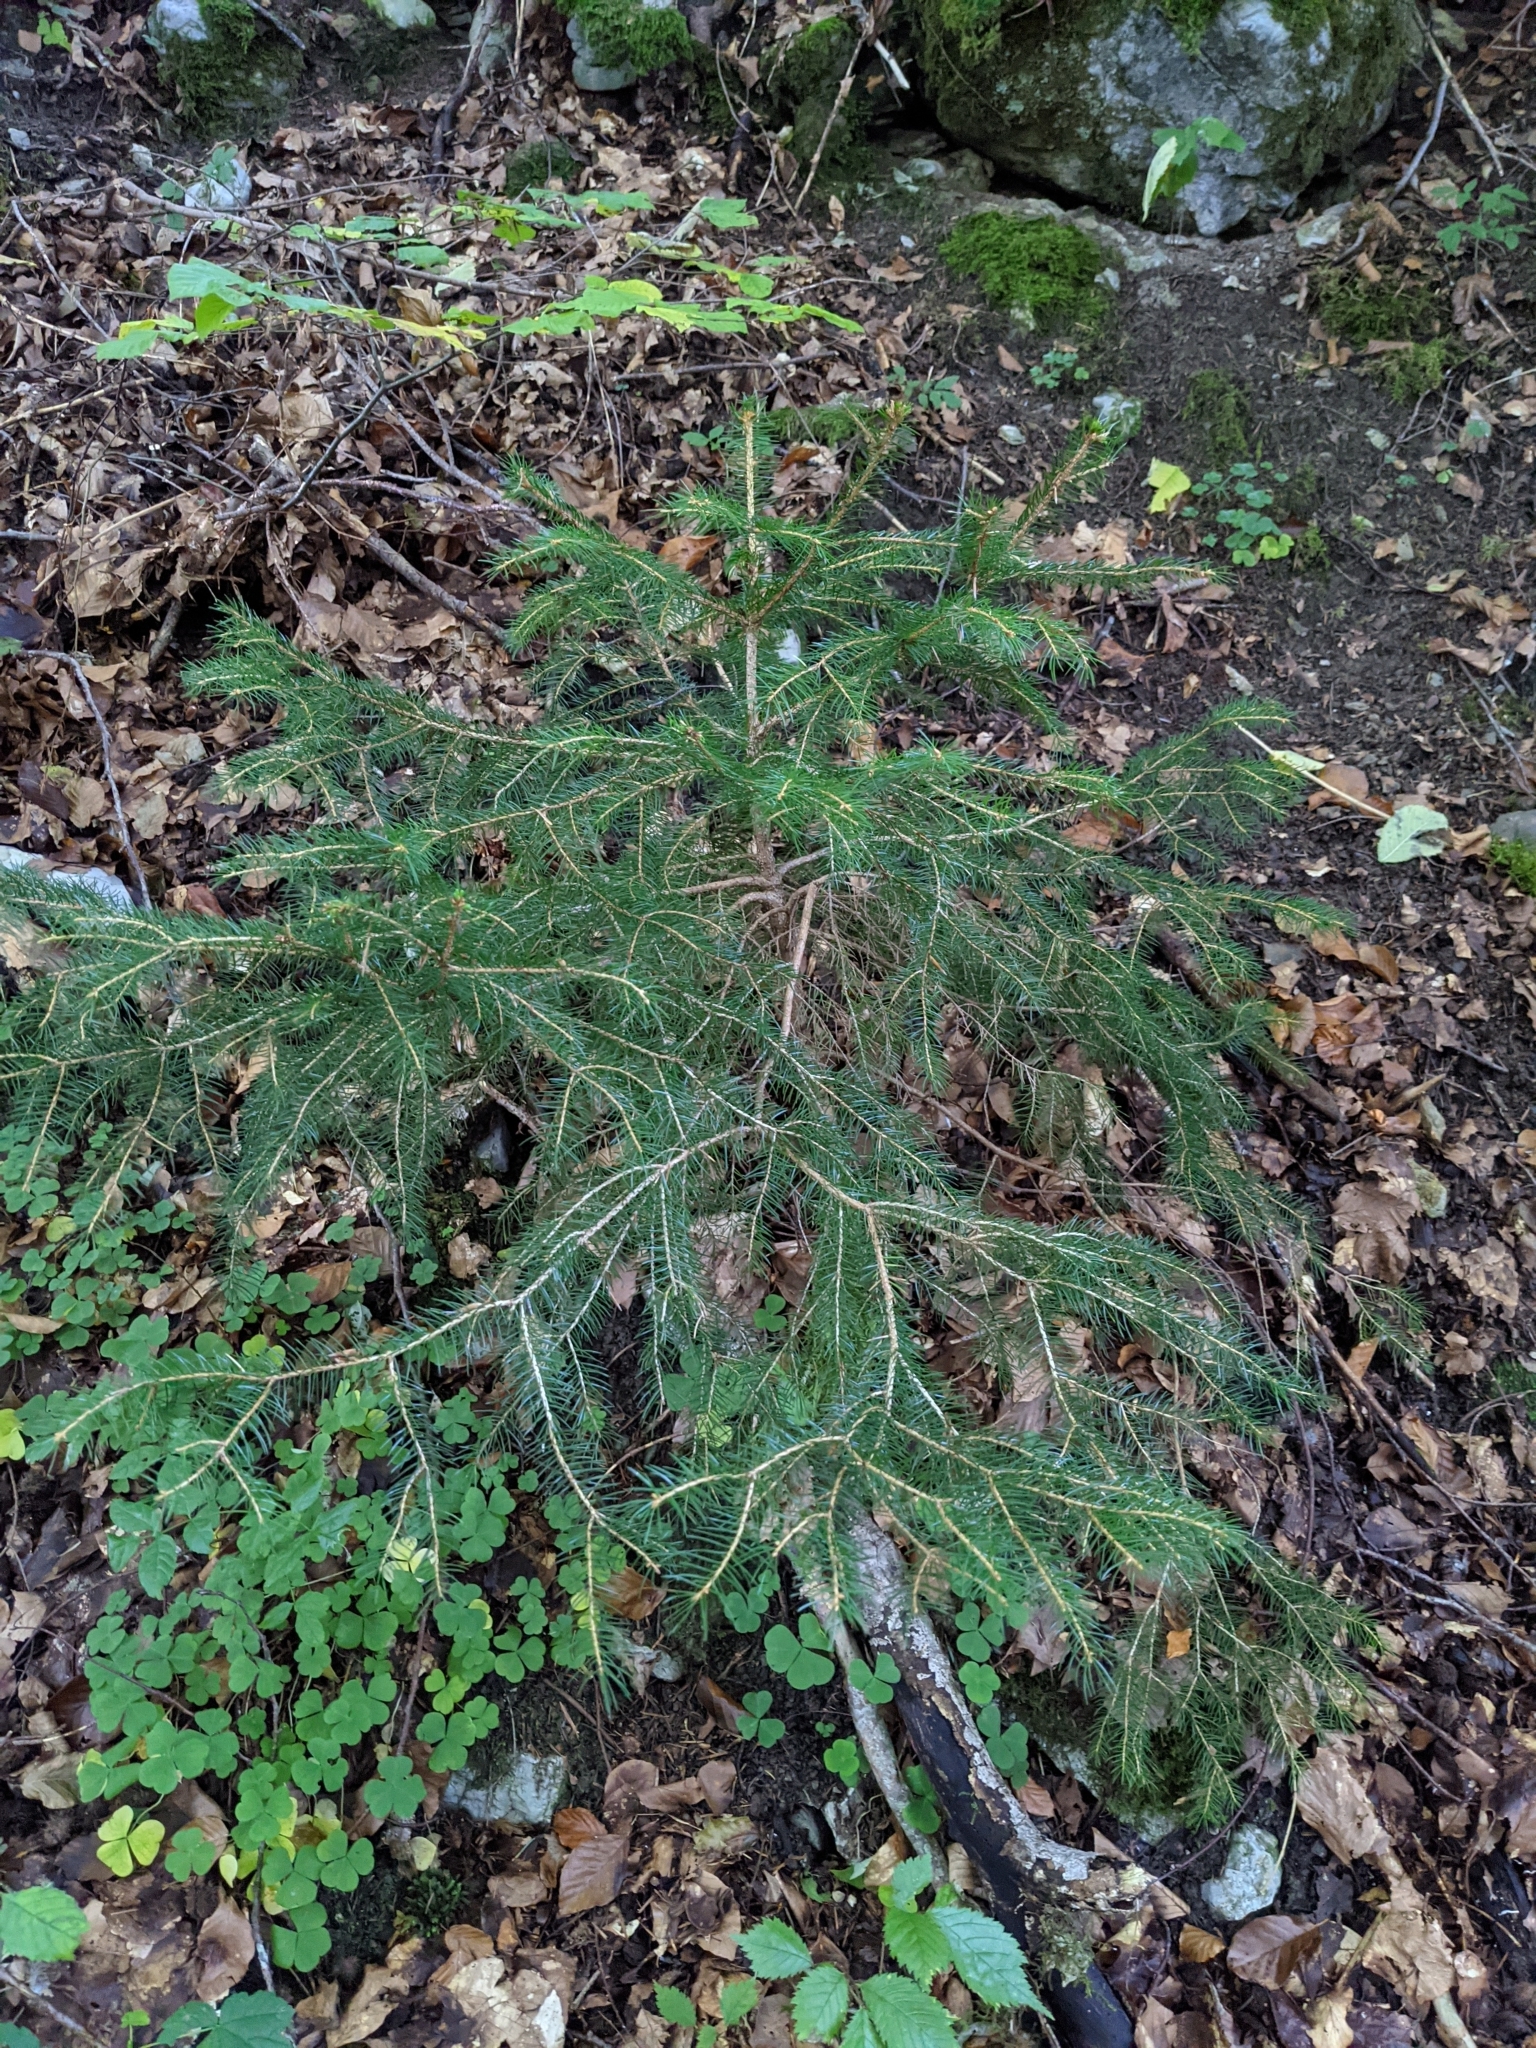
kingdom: Plantae
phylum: Tracheophyta
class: Pinopsida
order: Pinales
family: Pinaceae
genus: Picea
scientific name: Picea abies
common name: Norway spruce
